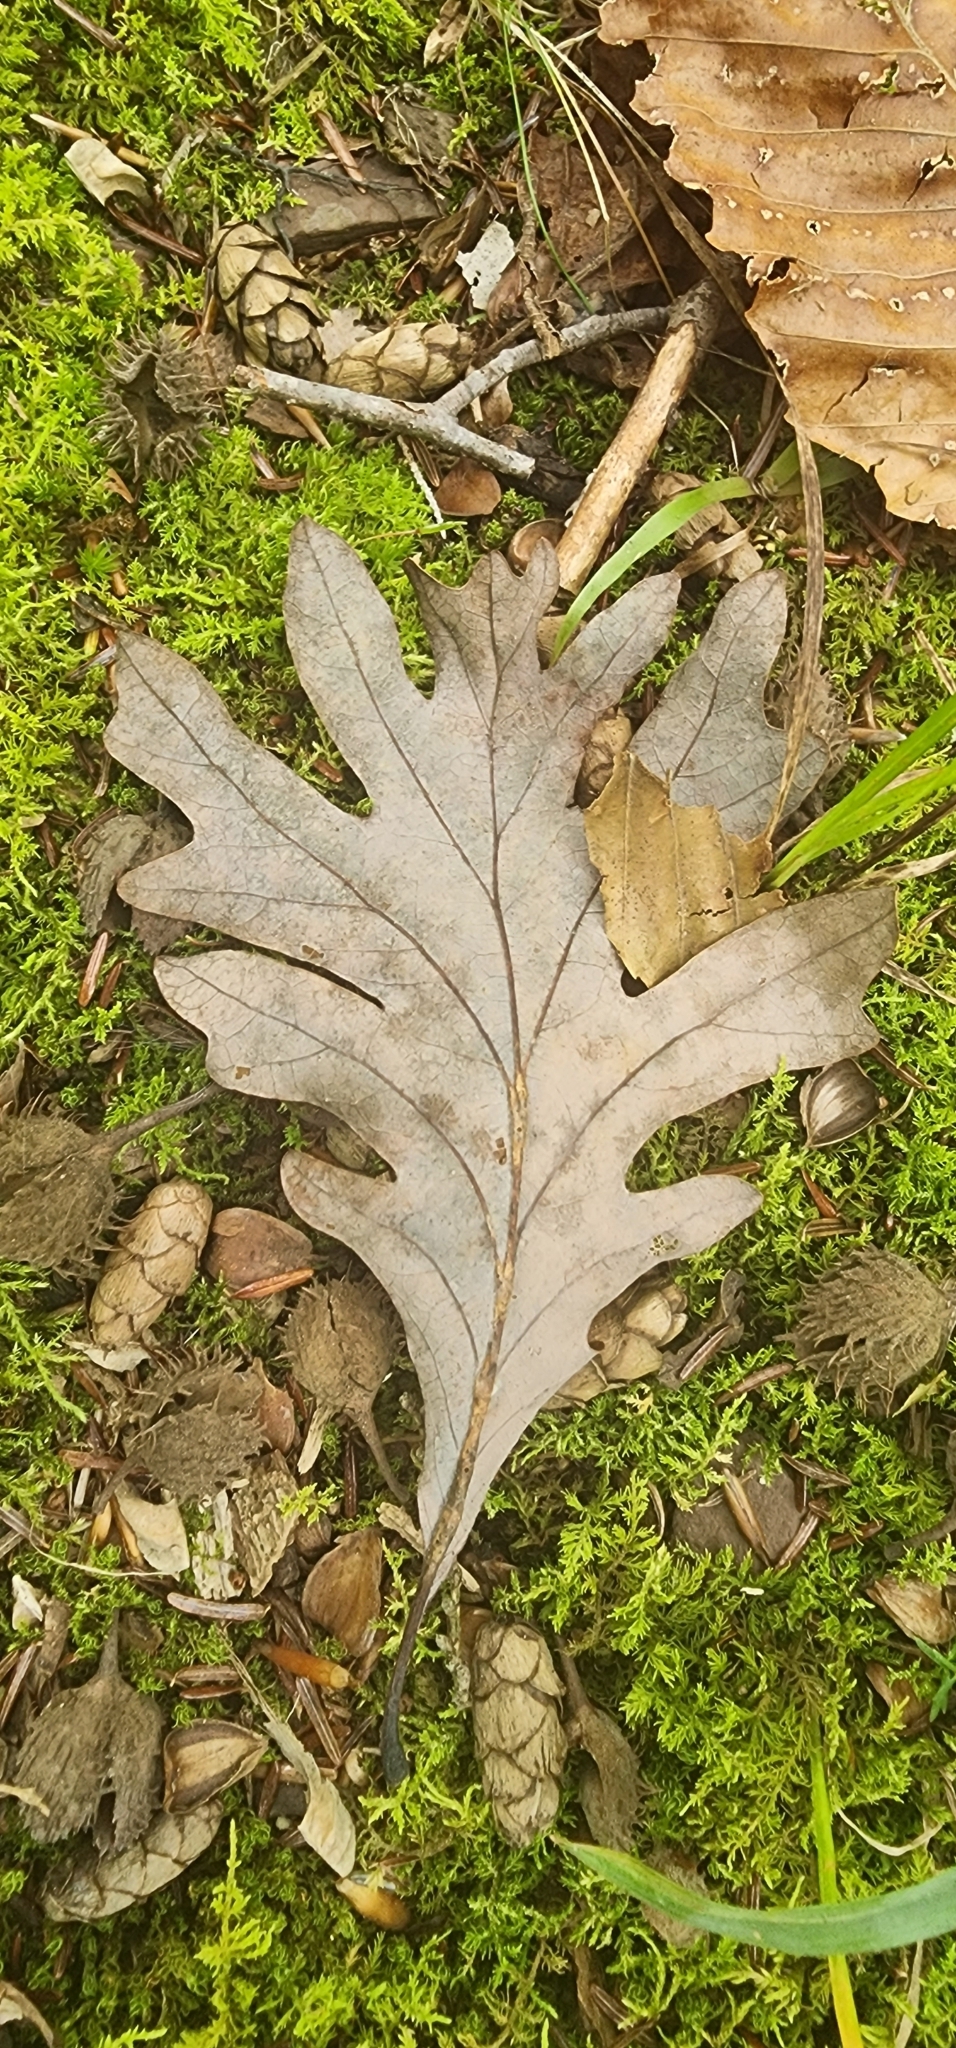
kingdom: Plantae
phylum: Tracheophyta
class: Magnoliopsida
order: Fagales
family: Fagaceae
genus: Quercus
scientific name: Quercus alba
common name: White oak
